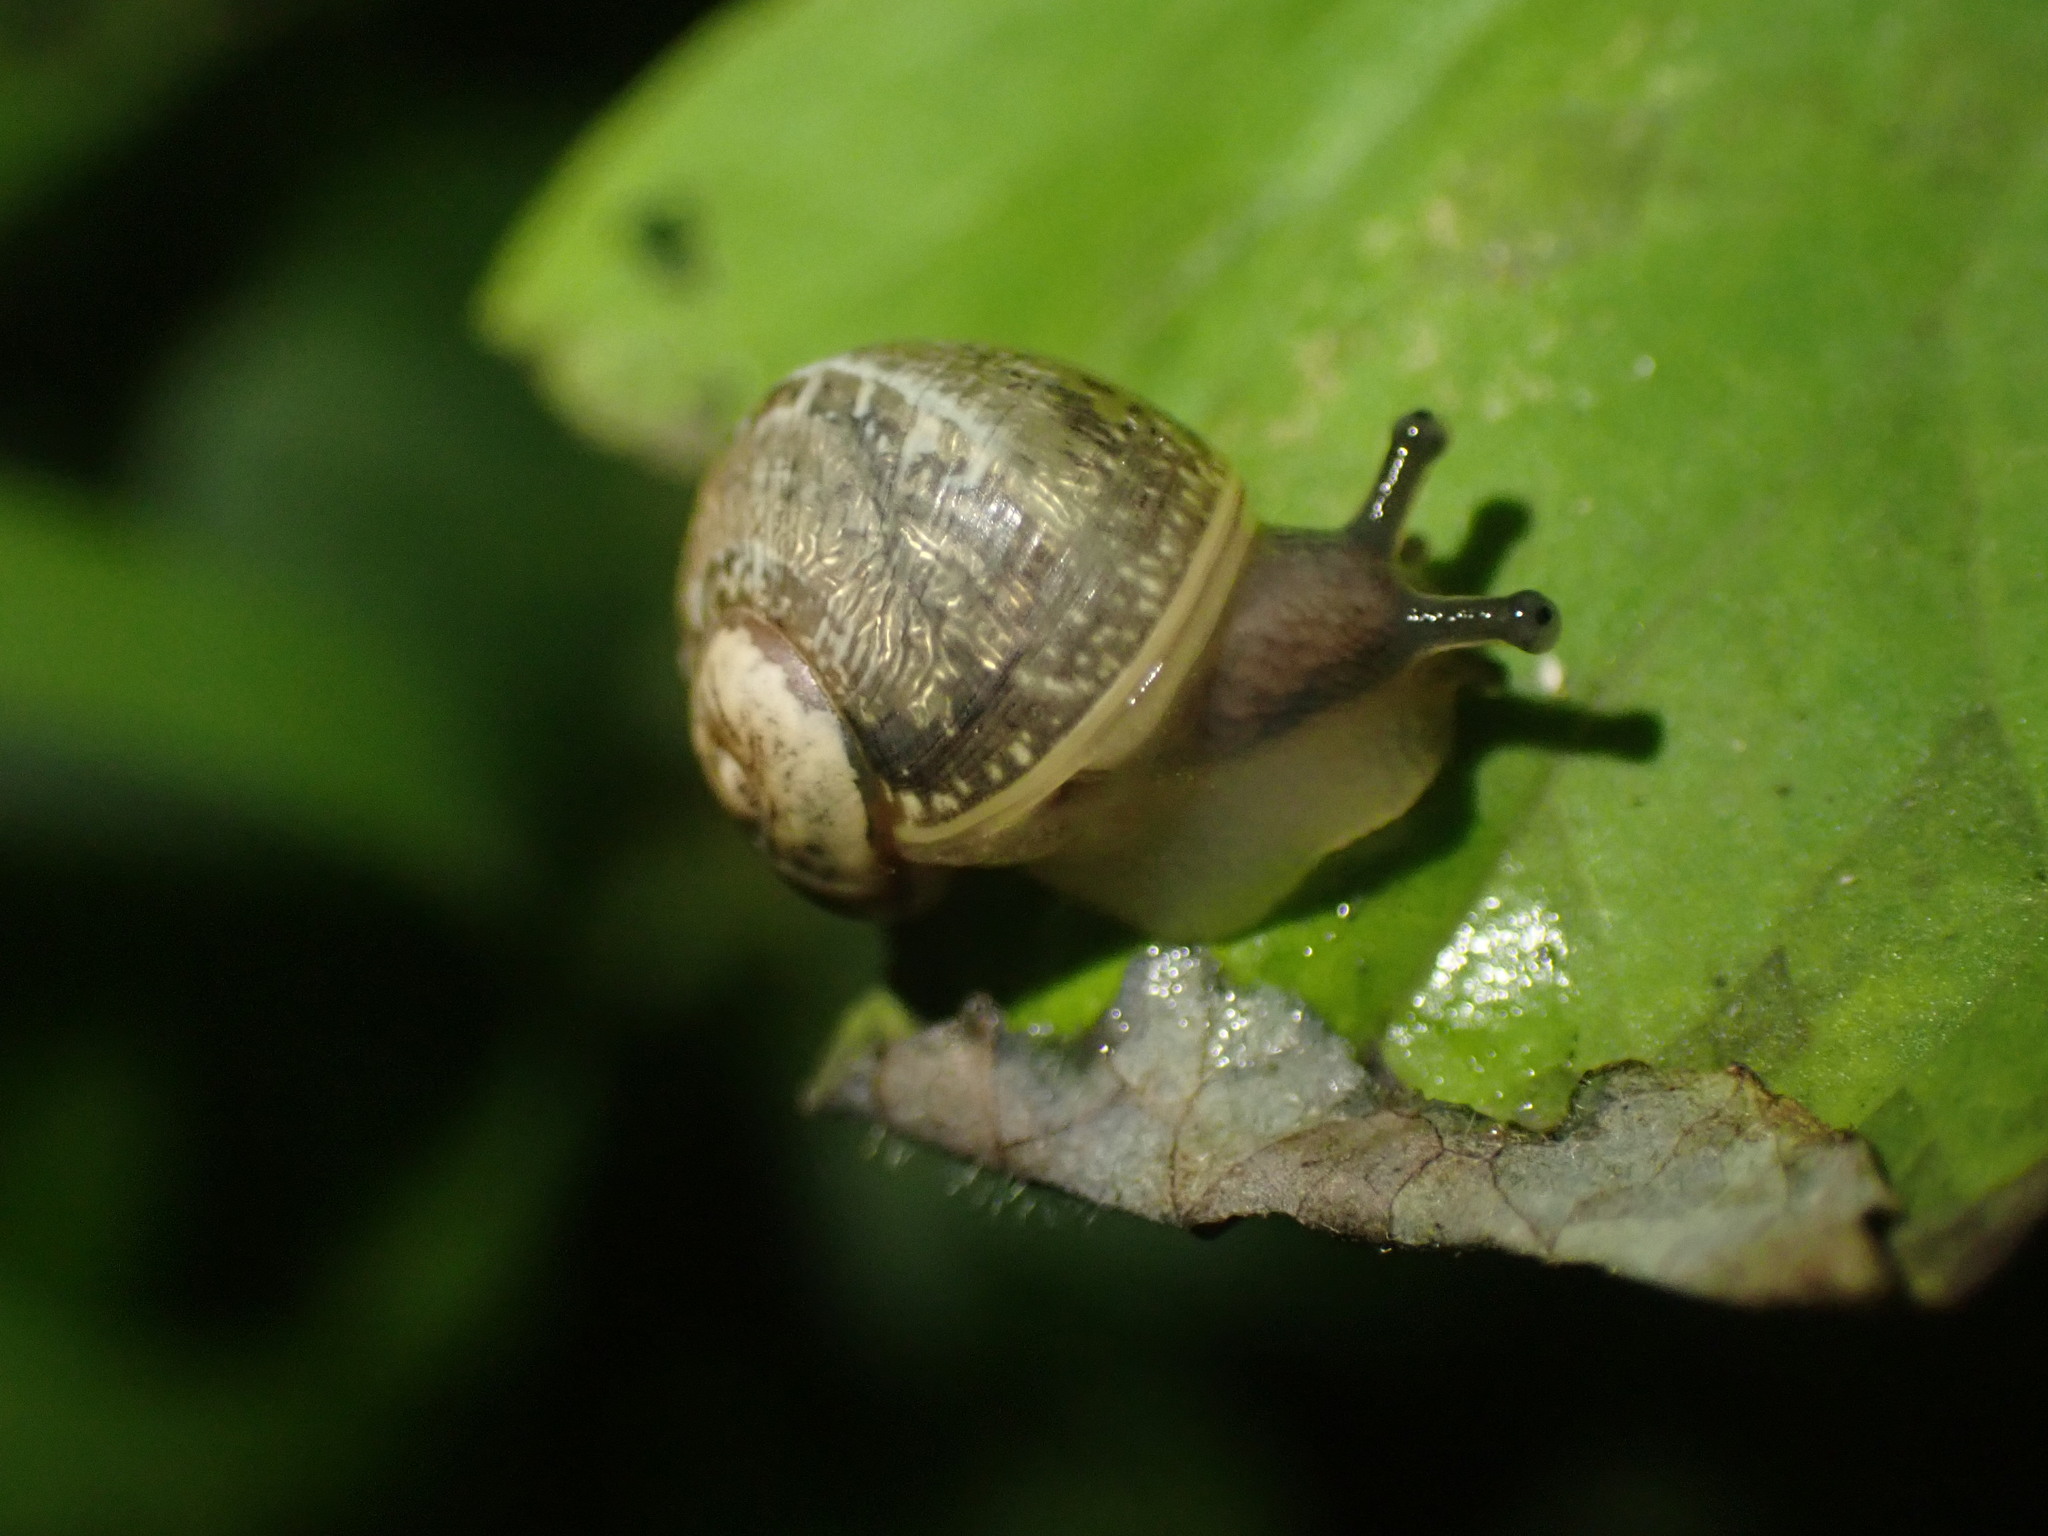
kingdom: Animalia
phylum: Mollusca
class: Gastropoda
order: Stylommatophora
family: Limacidae
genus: Ambigolimax
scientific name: Ambigolimax
